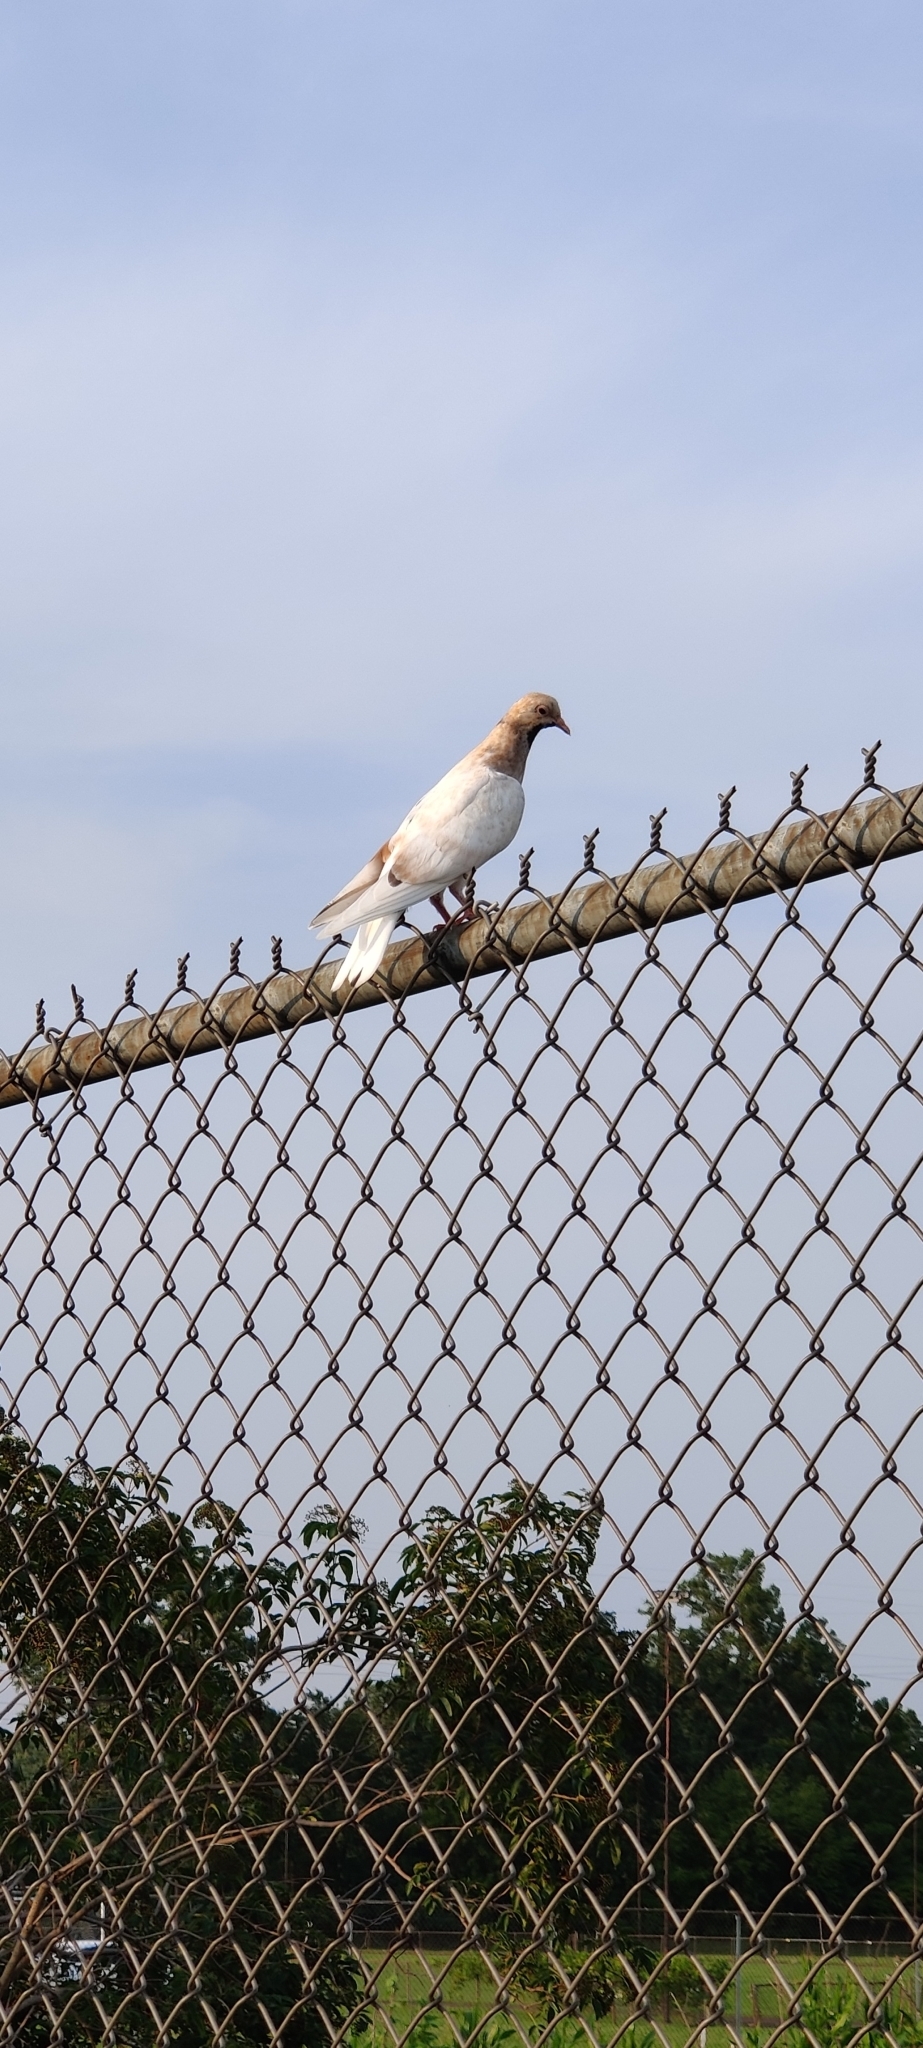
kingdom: Animalia
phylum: Chordata
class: Aves
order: Columbiformes
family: Columbidae
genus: Columba
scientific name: Columba livia
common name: Rock pigeon
